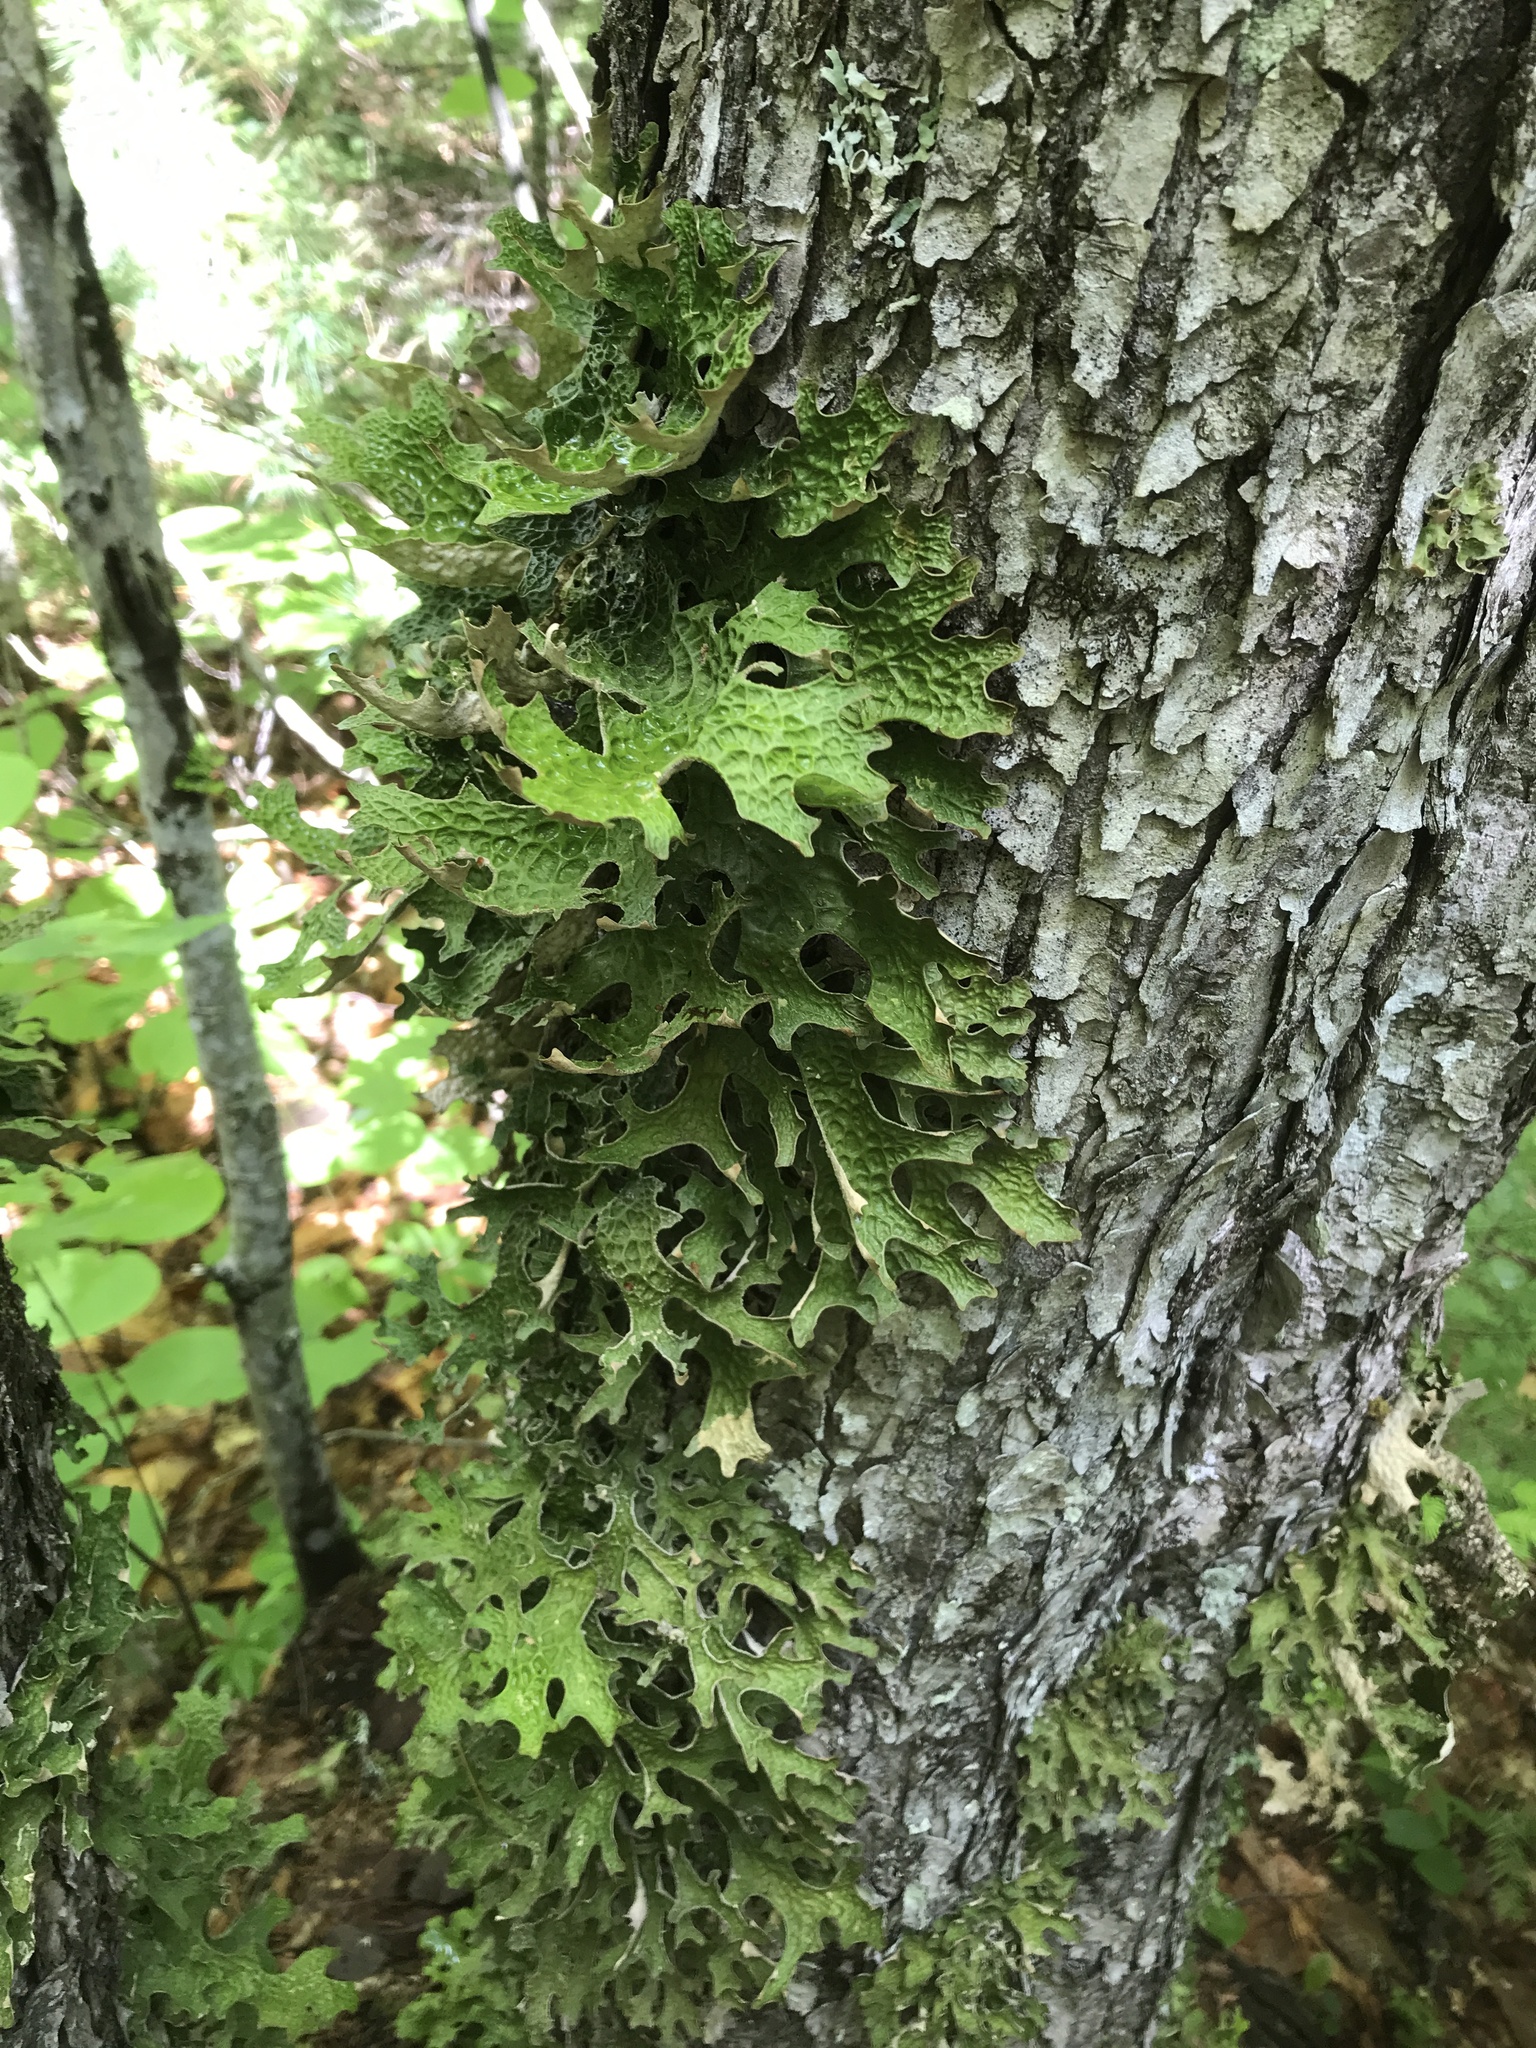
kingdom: Fungi
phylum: Ascomycota
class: Lecanoromycetes
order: Peltigerales
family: Lobariaceae
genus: Lobaria
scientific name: Lobaria pulmonaria
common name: Lungwort
